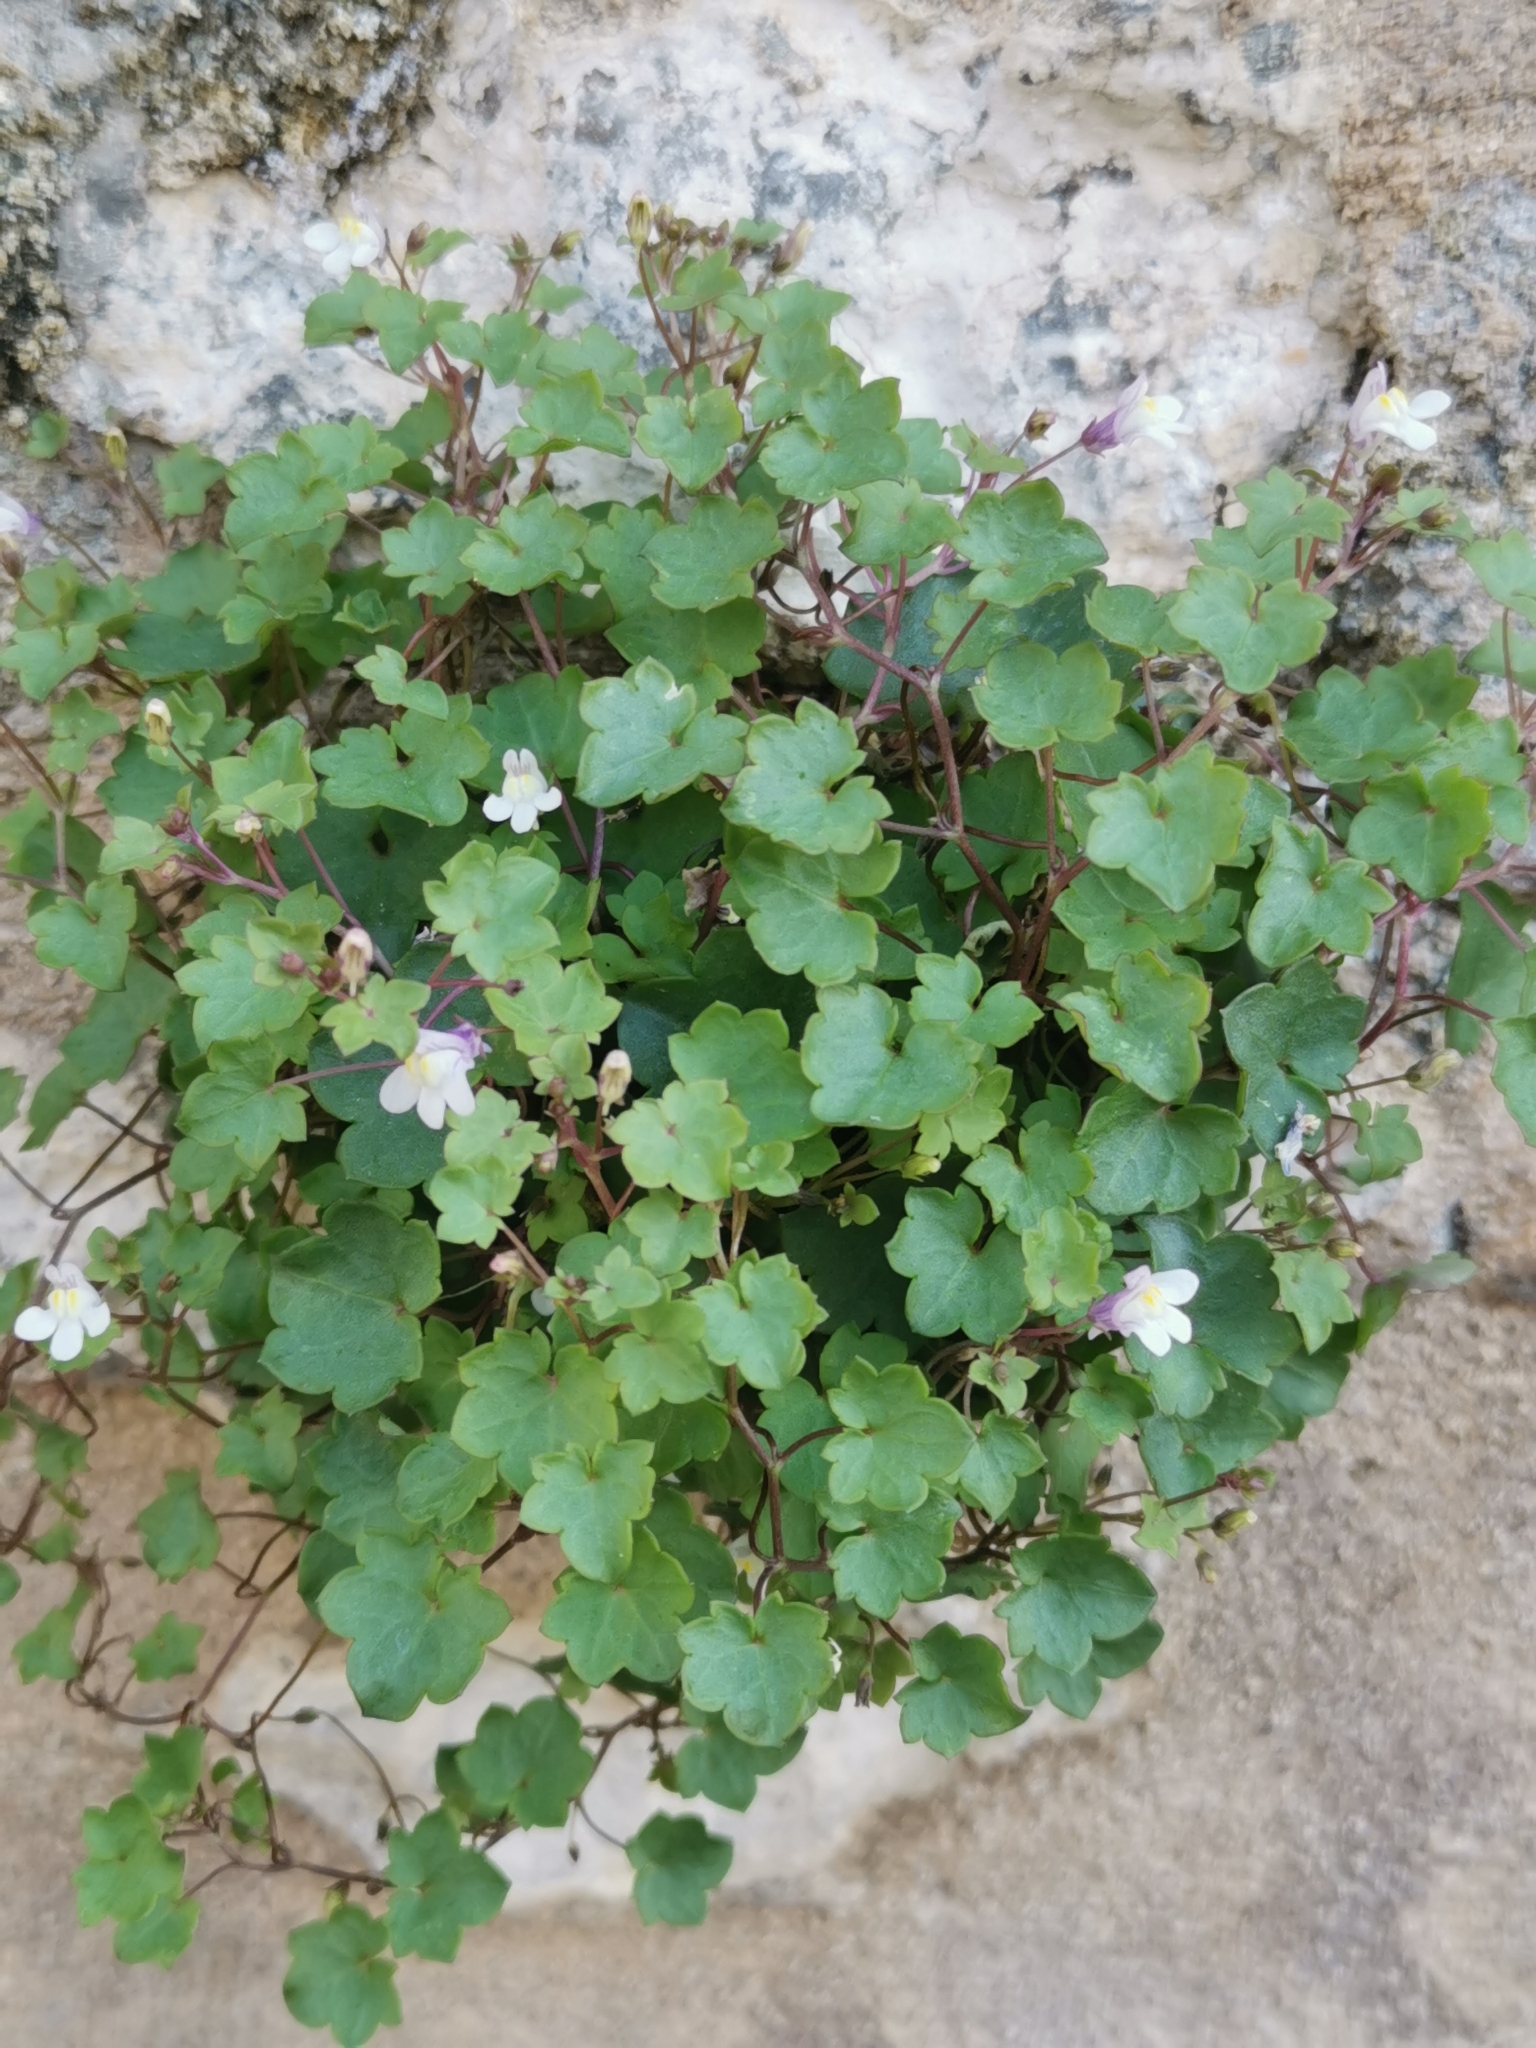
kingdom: Plantae
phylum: Tracheophyta
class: Magnoliopsida
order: Lamiales
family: Plantaginaceae
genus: Cymbalaria
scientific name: Cymbalaria muralis
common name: Ivy-leaved toadflax
